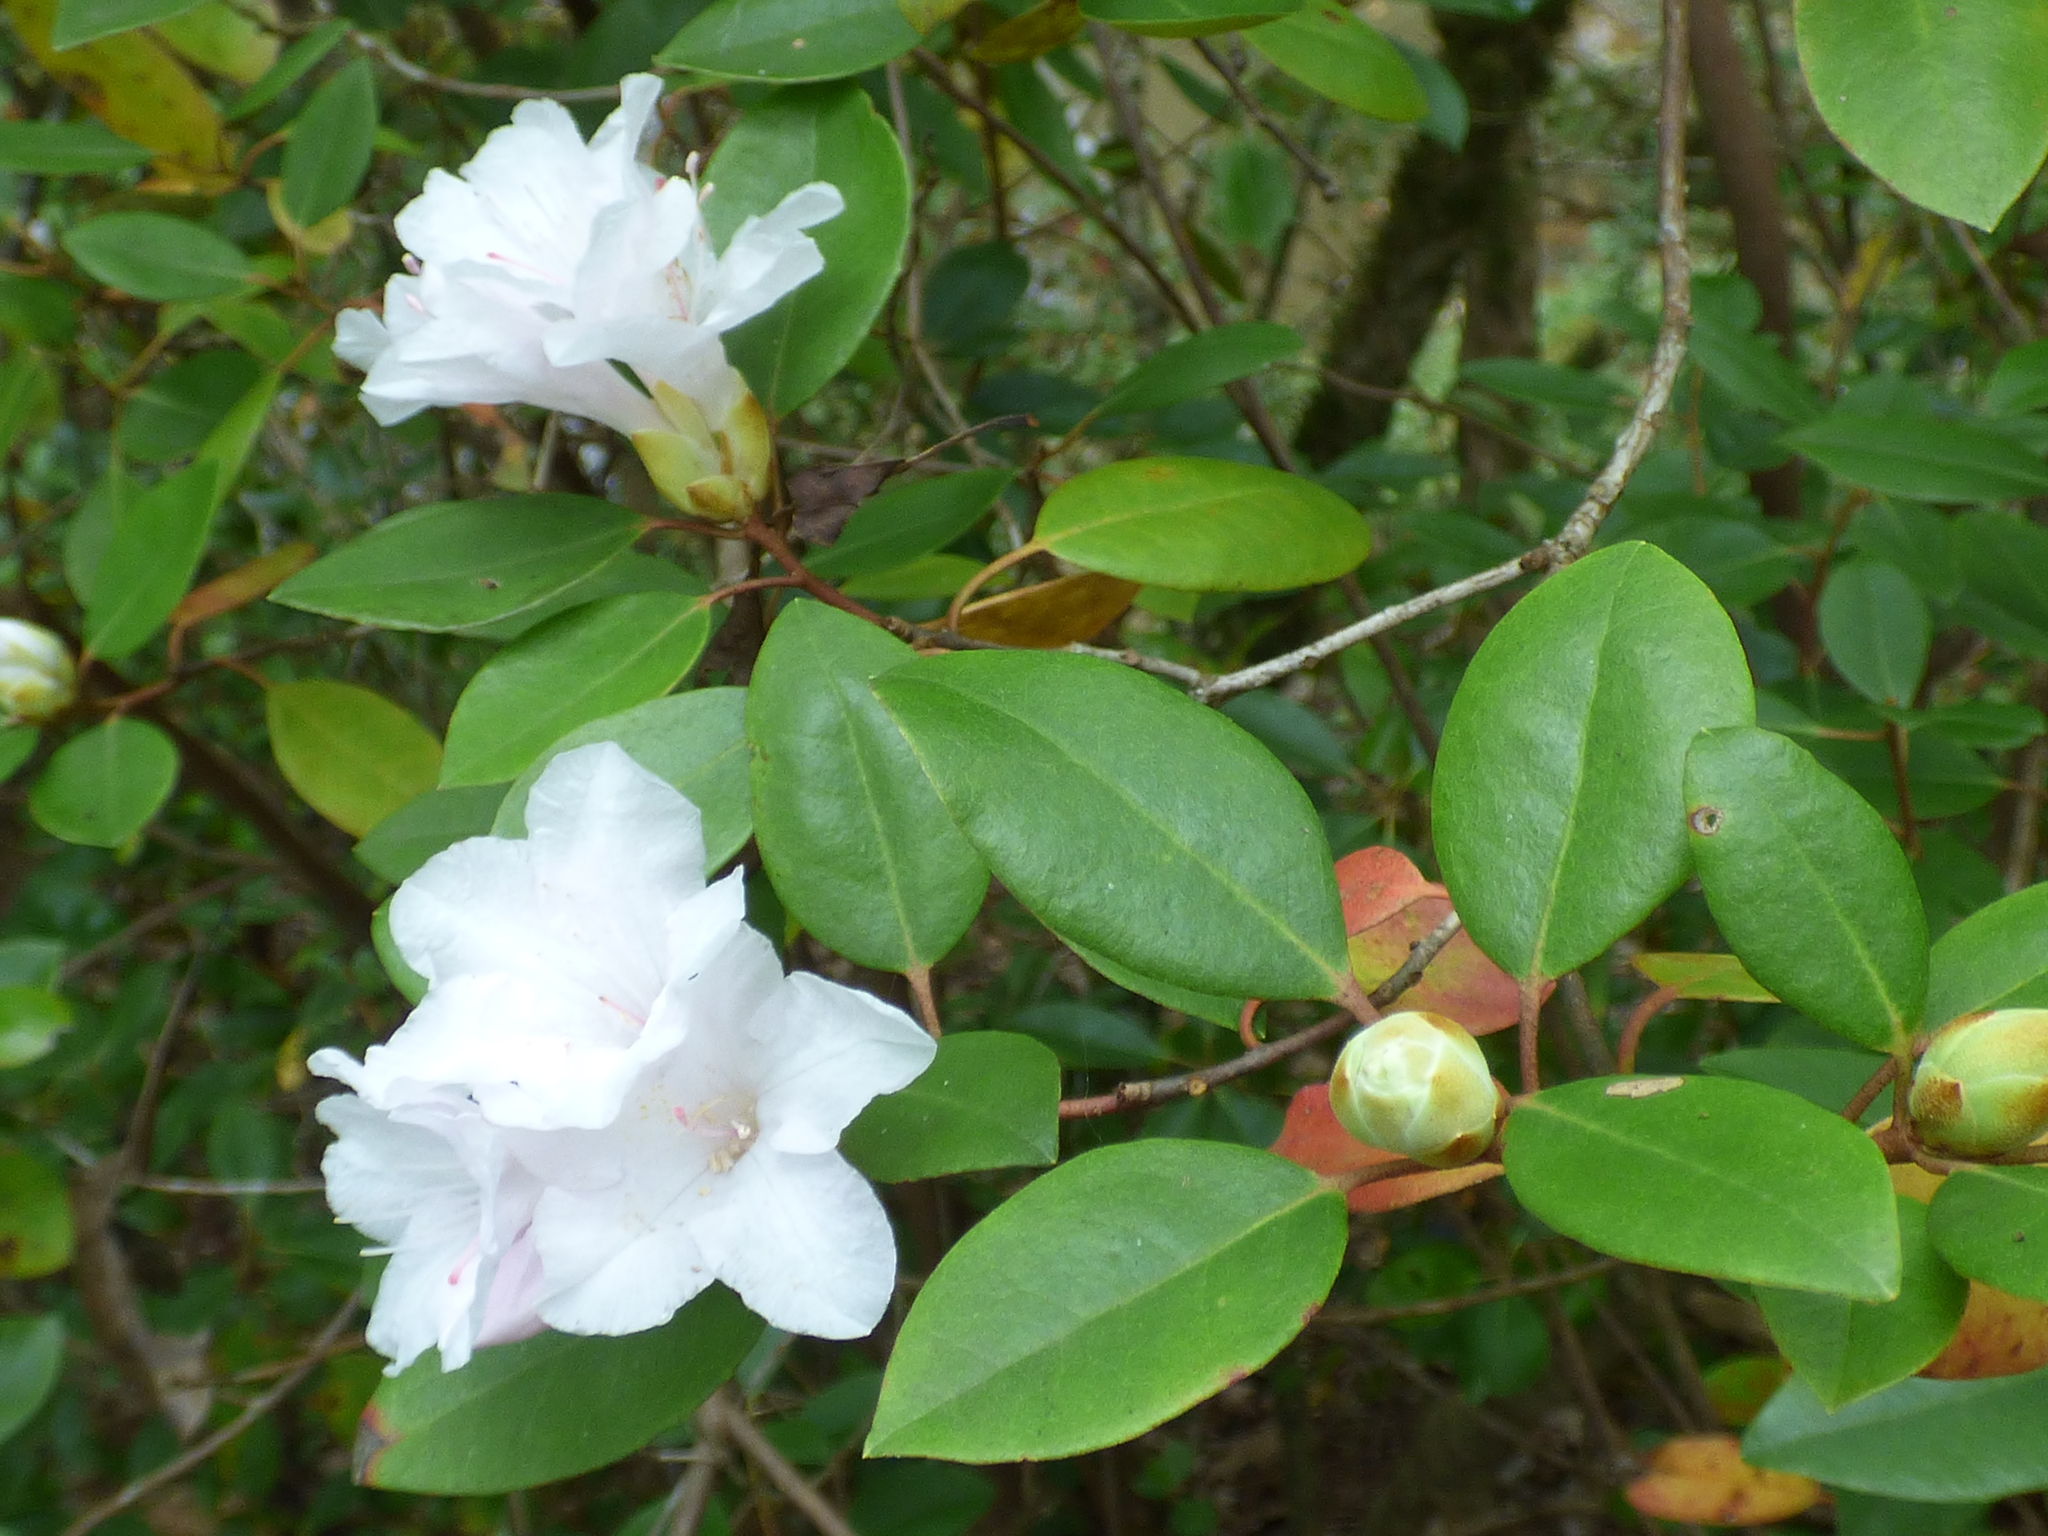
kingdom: Plantae
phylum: Tracheophyta
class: Magnoliopsida
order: Ericales
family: Ericaceae
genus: Rhododendron
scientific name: Rhododendron minus
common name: Piedmont rhododendron
